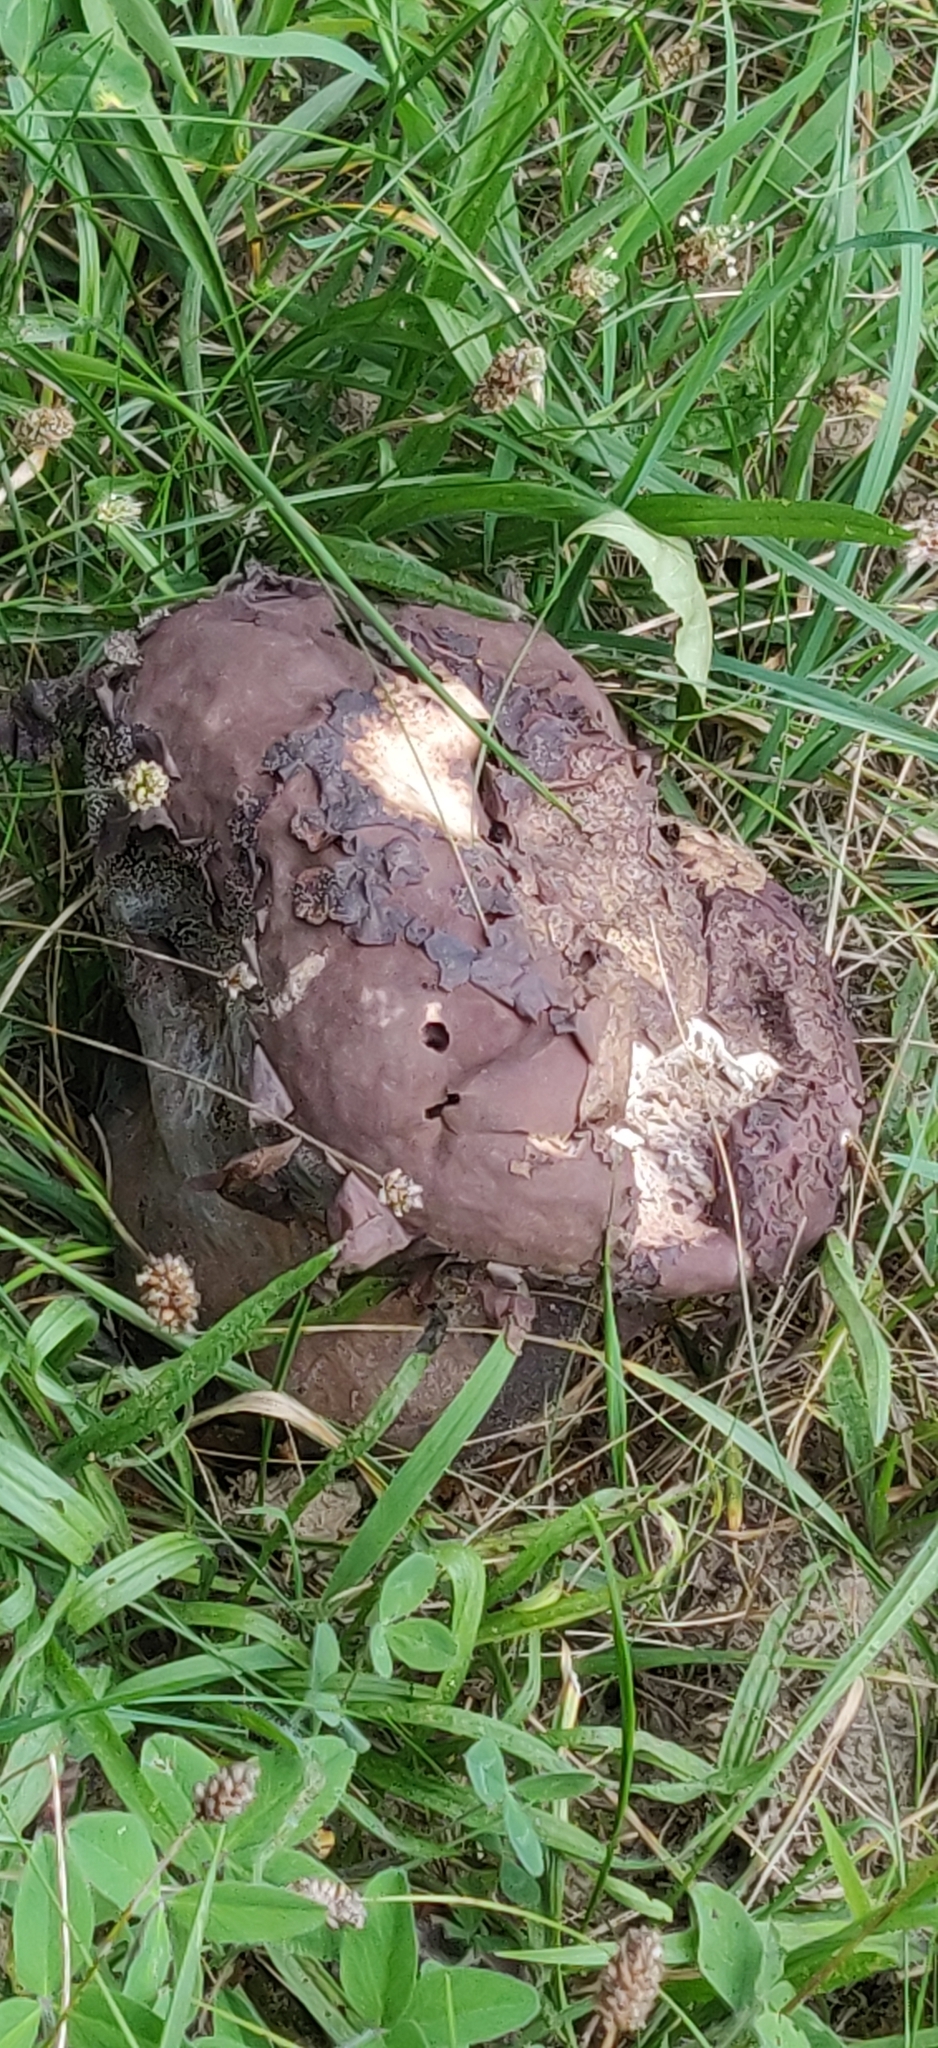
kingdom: Fungi
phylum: Basidiomycota
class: Agaricomycetes
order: Agaricales
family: Lycoperdaceae
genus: Calvatia
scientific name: Calvatia cyathiformis
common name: Purple-spored puffball
